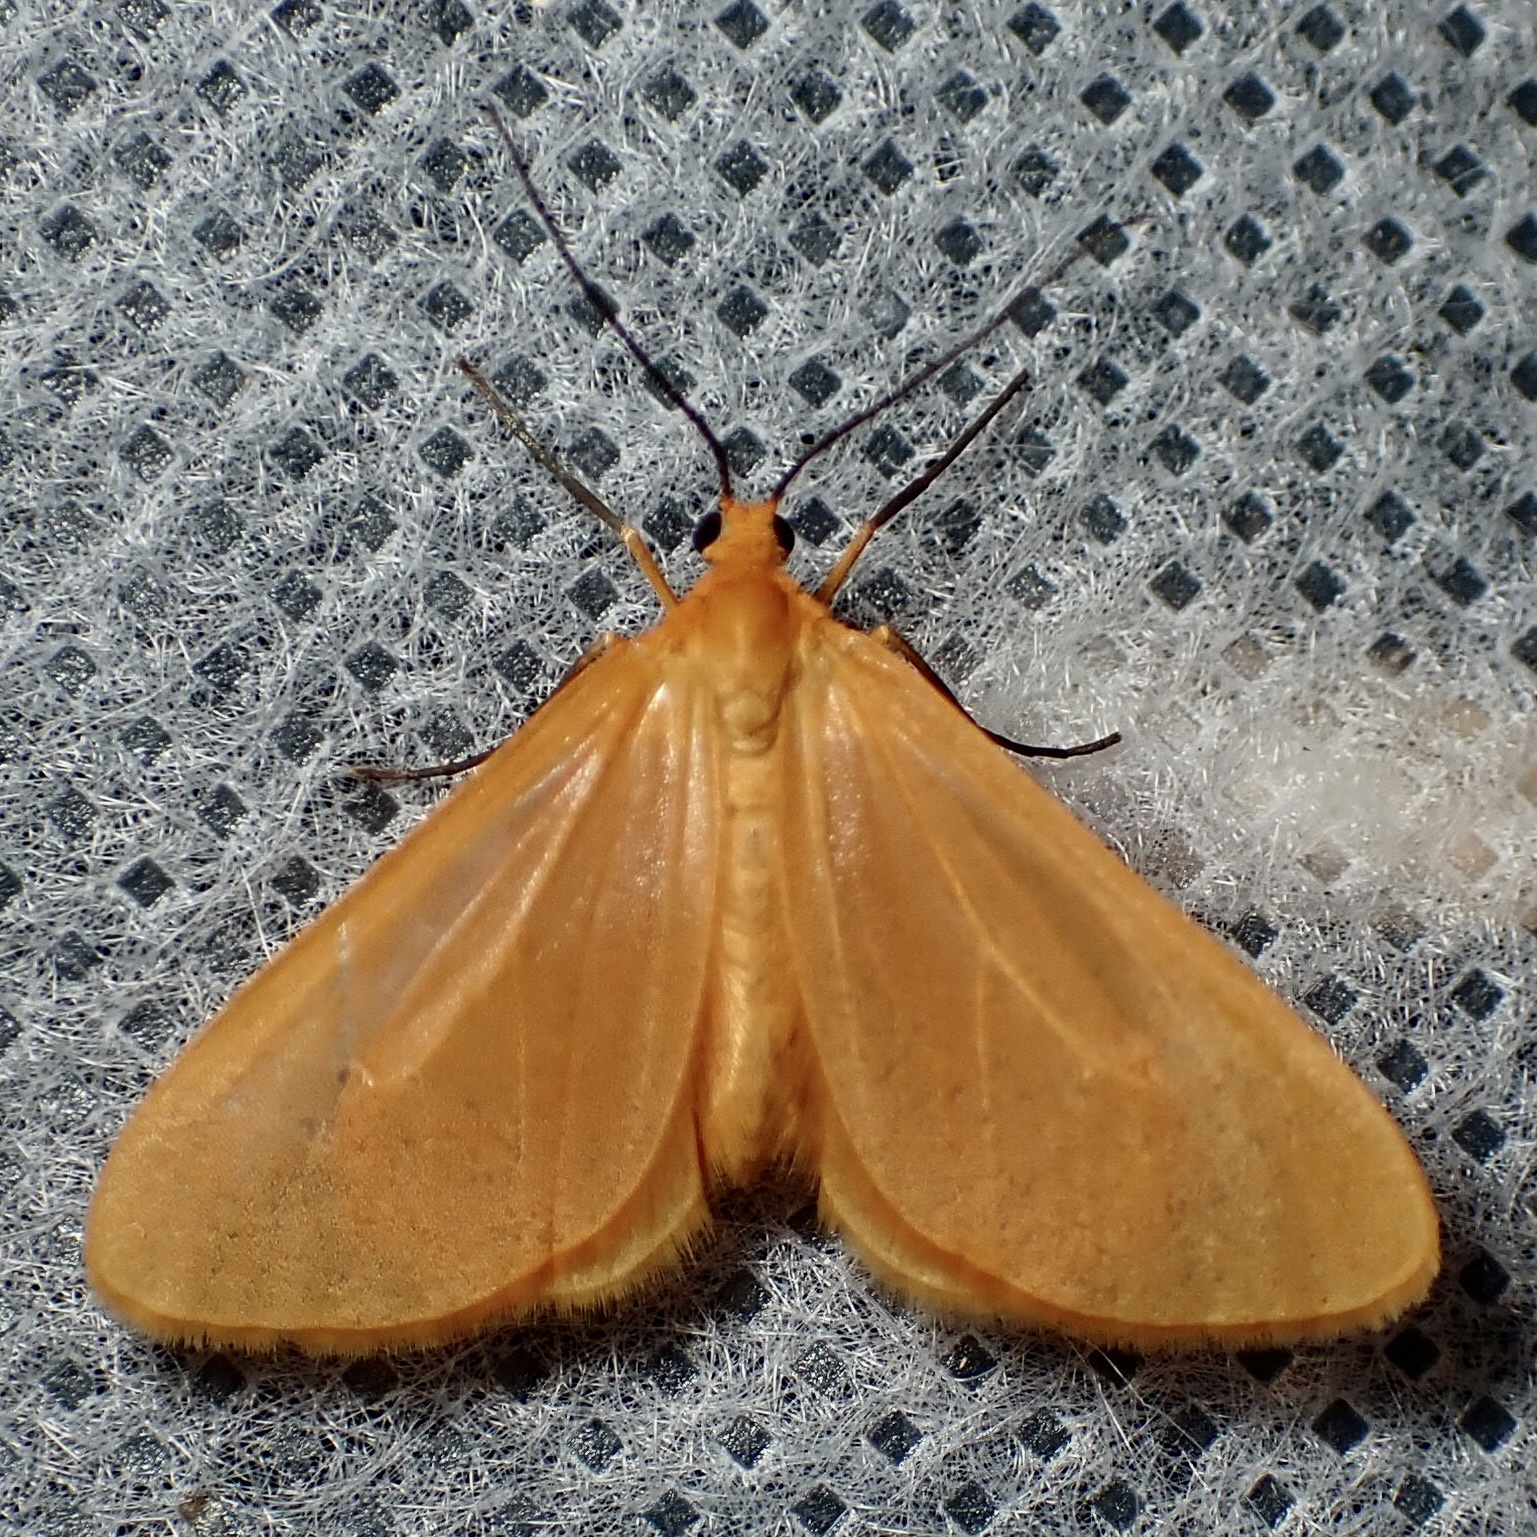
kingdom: Animalia
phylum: Arthropoda
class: Insecta
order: Lepidoptera
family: Geometridae
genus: Eubaphe
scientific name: Eubaphe unicolor
